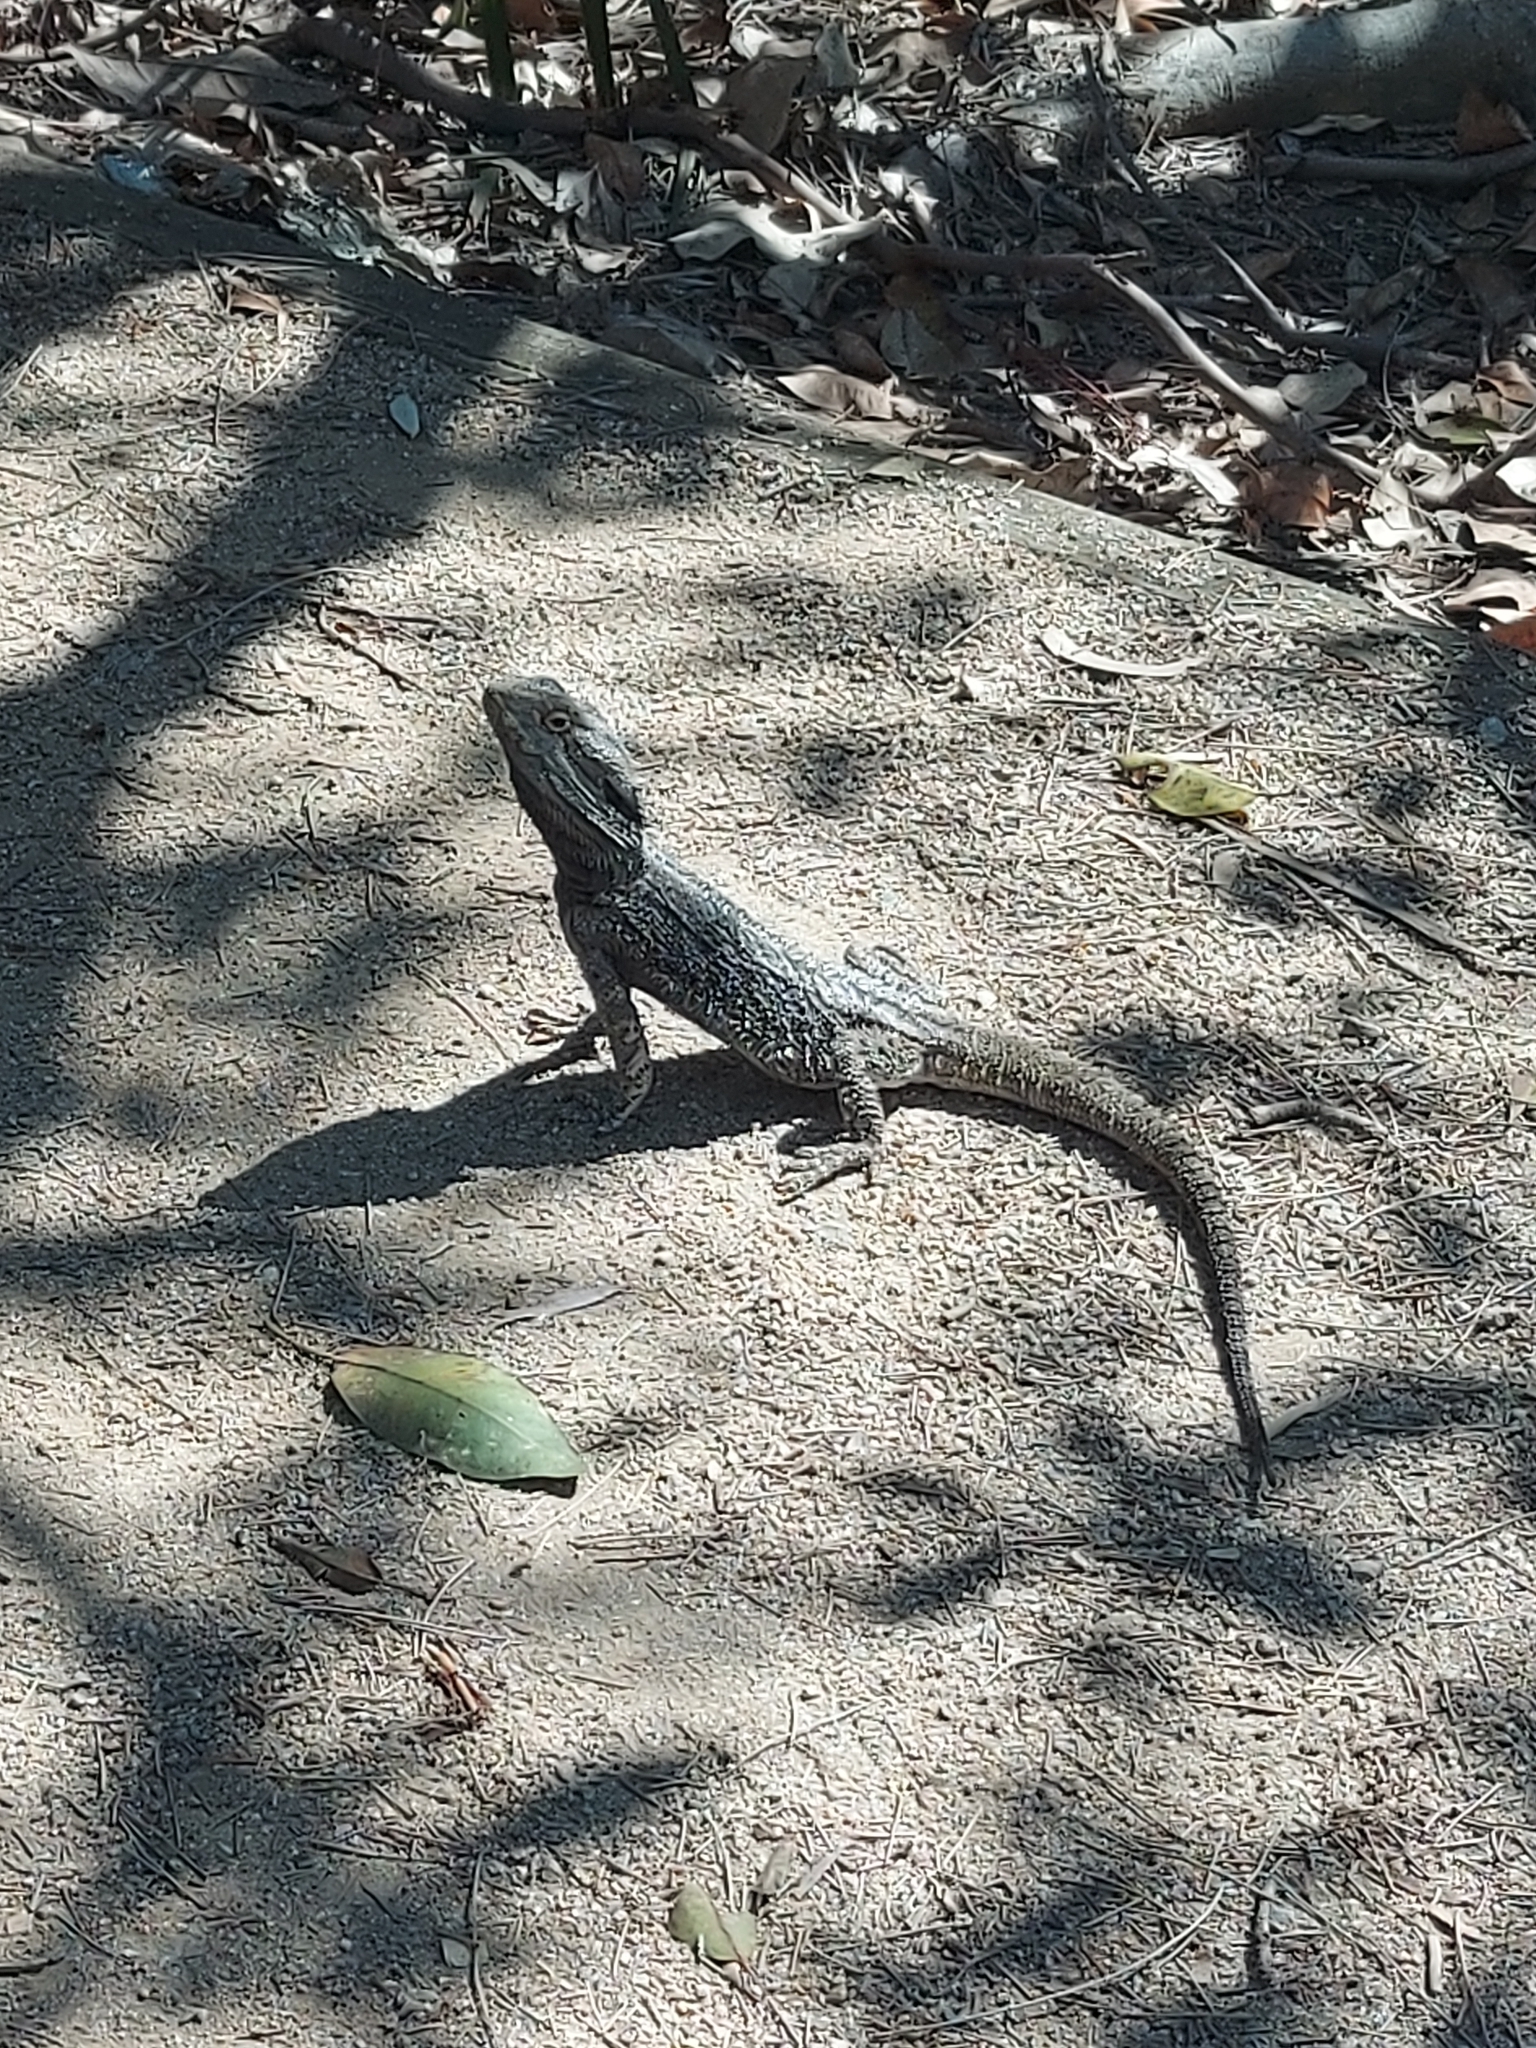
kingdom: Animalia
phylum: Chordata
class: Squamata
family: Agamidae
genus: Pogona
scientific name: Pogona barbata
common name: Bearded dragon
